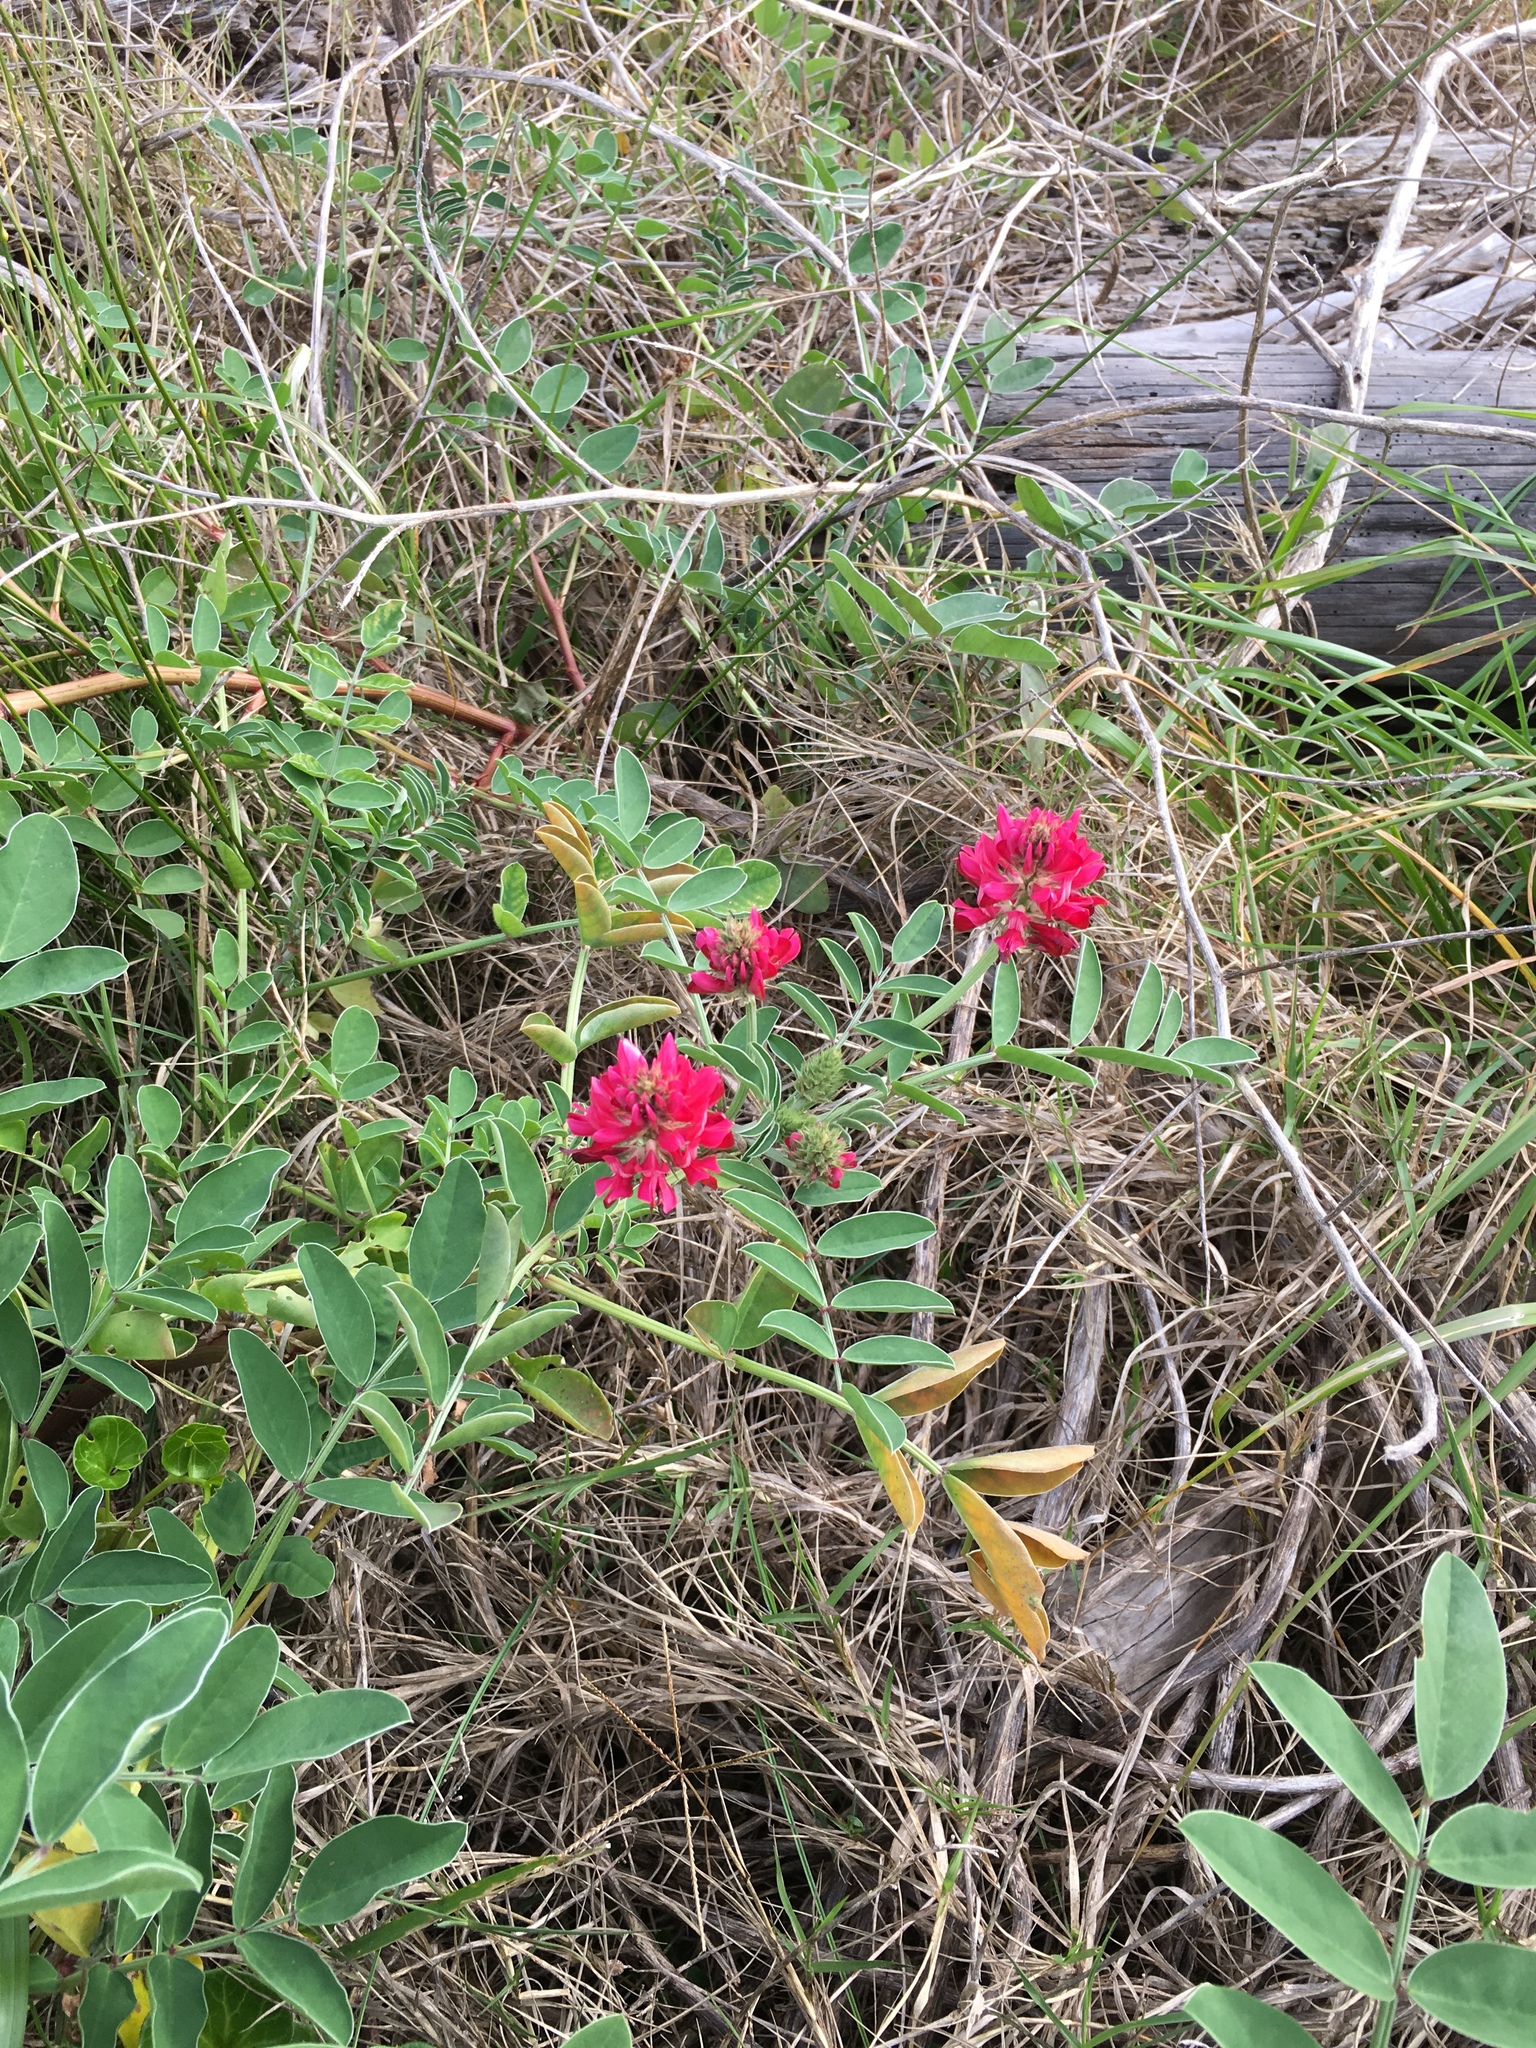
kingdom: Plantae
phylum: Tracheophyta
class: Magnoliopsida
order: Fabales
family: Fabaceae
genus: Sulla
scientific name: Sulla coronaria
